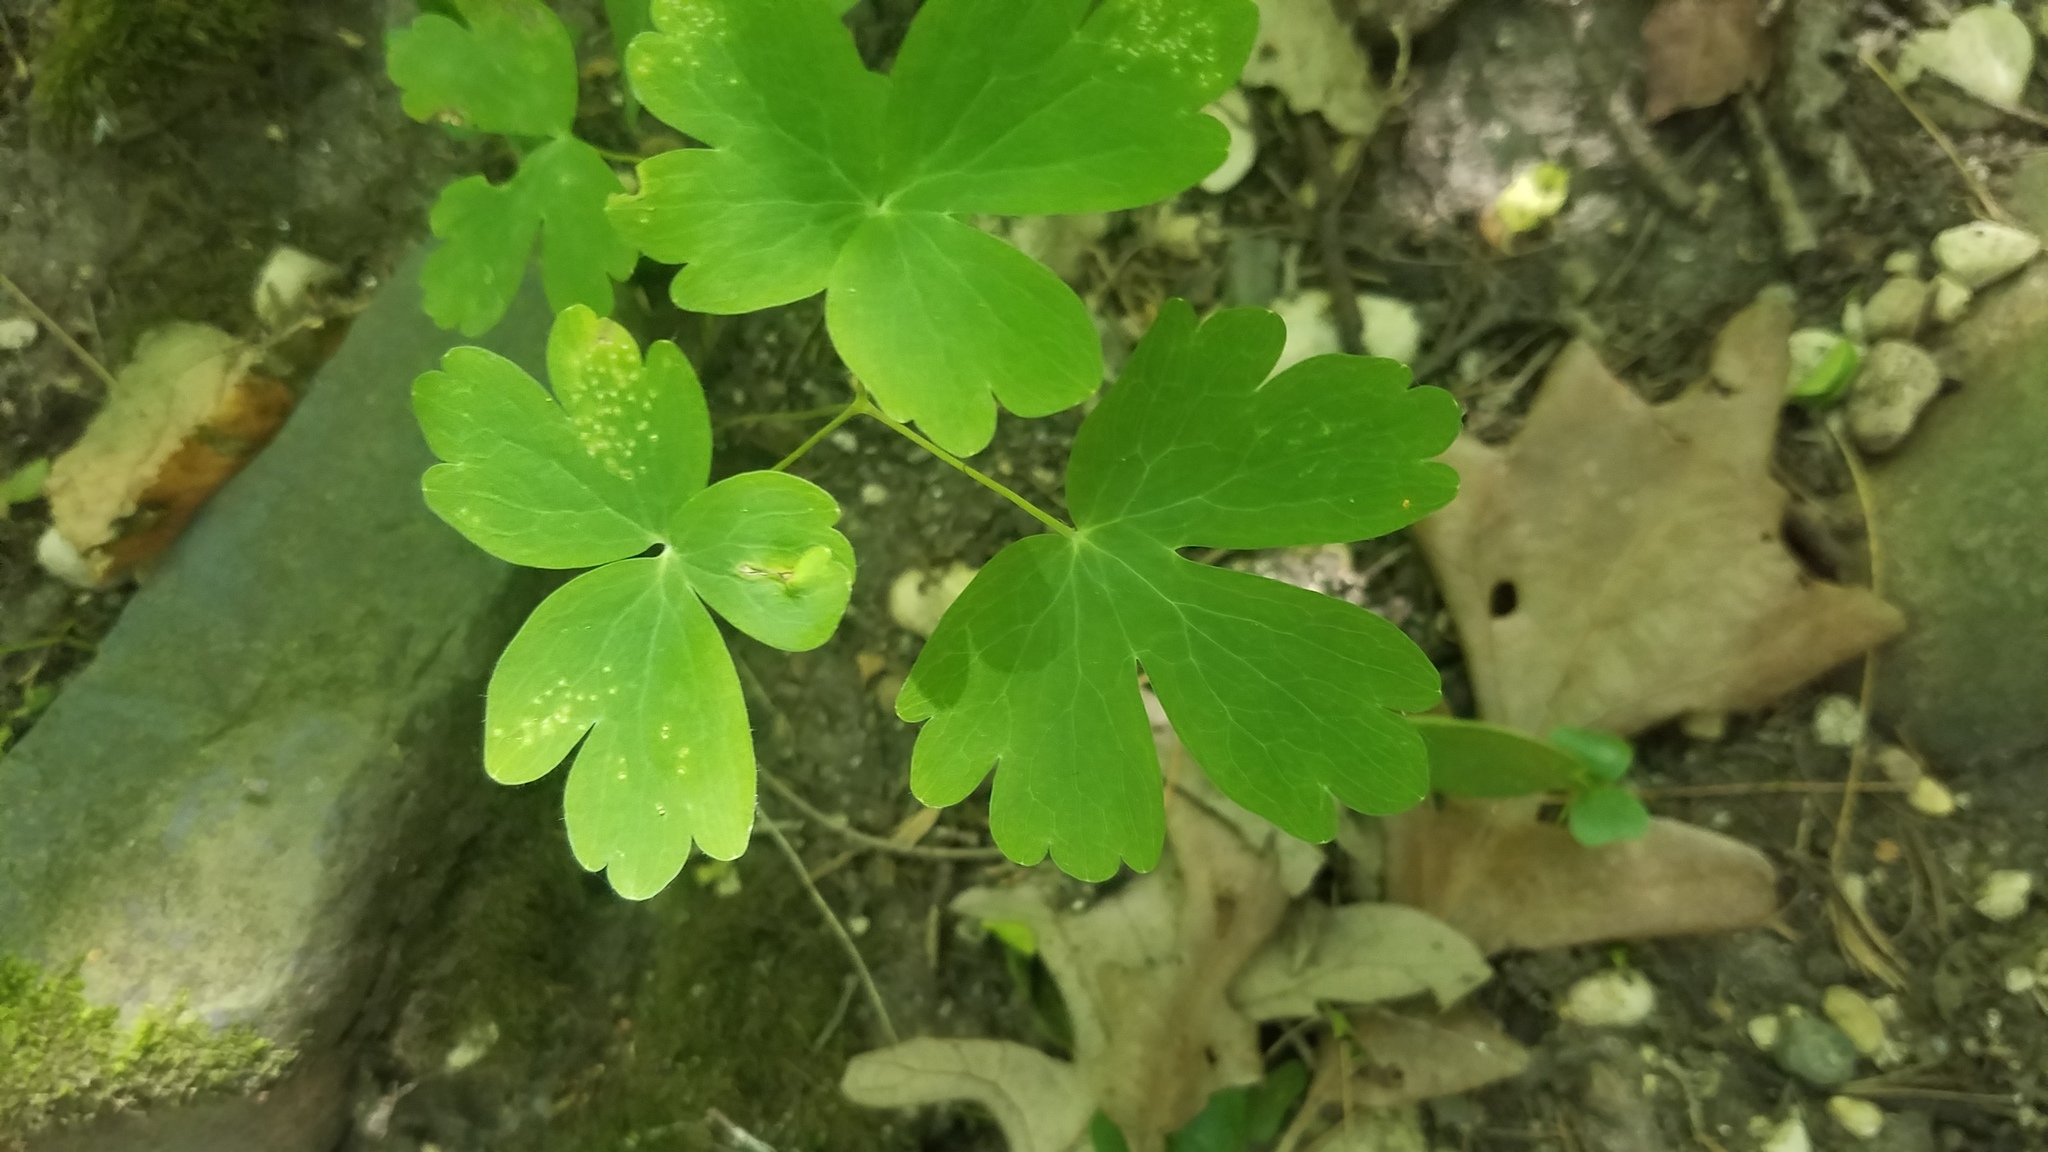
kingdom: Plantae
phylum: Tracheophyta
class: Magnoliopsida
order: Ranunculales
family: Ranunculaceae
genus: Aquilegia
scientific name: Aquilegia canadensis
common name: American columbine
